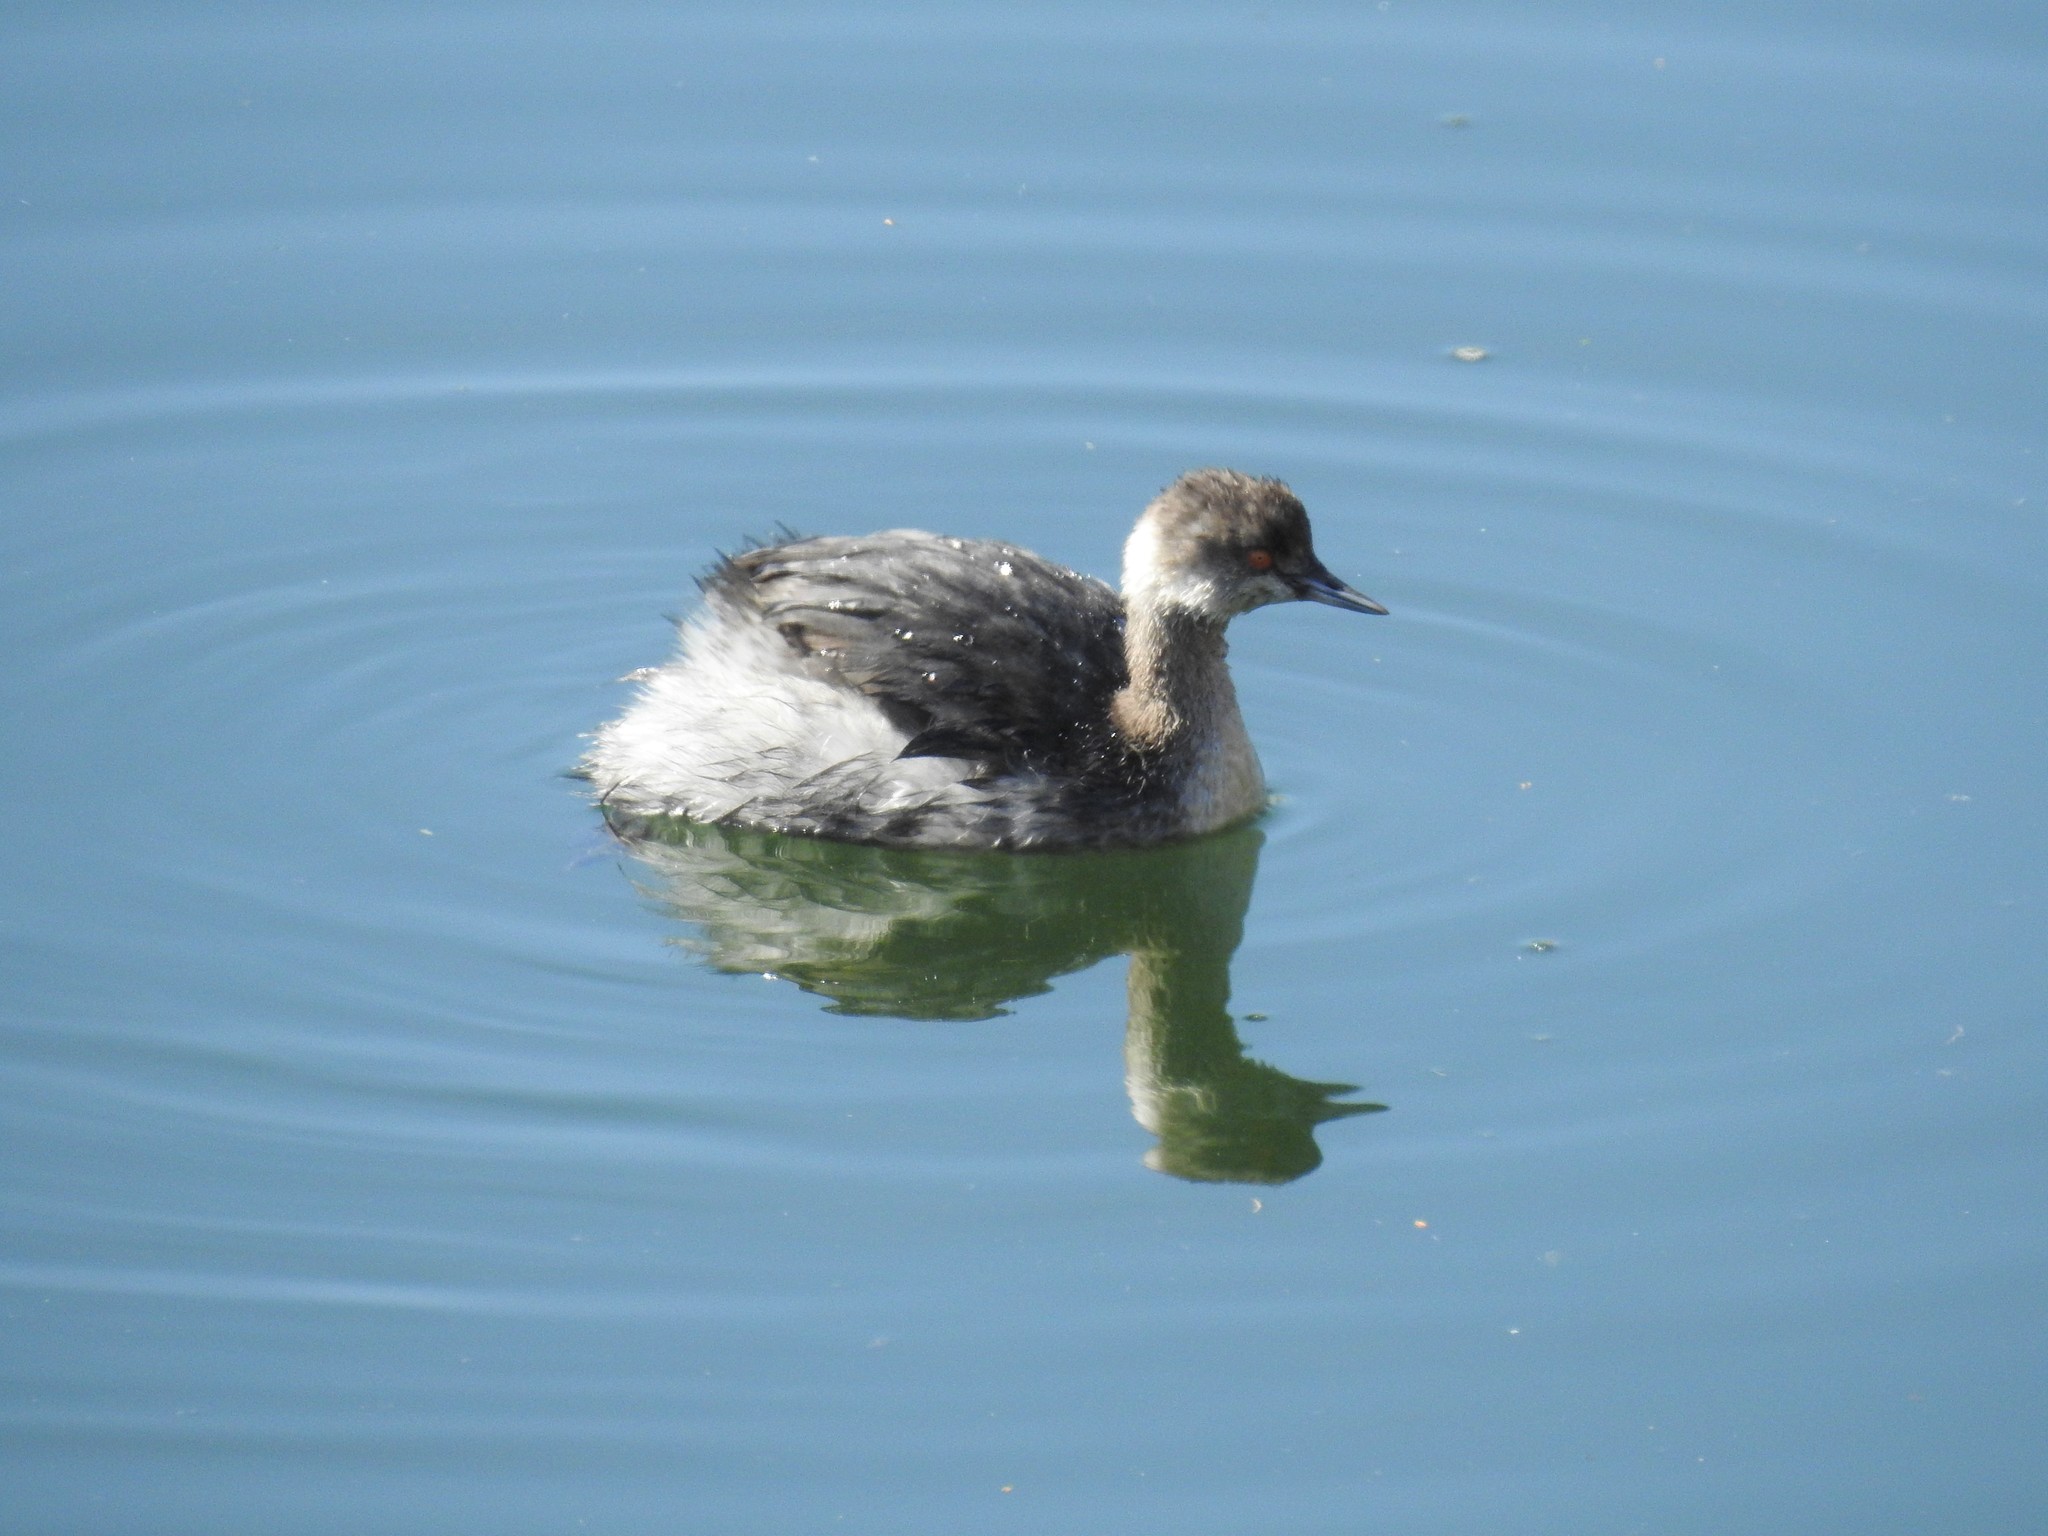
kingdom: Animalia
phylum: Chordata
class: Aves
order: Podicipediformes
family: Podicipedidae
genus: Podiceps
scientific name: Podiceps nigricollis
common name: Black-necked grebe
